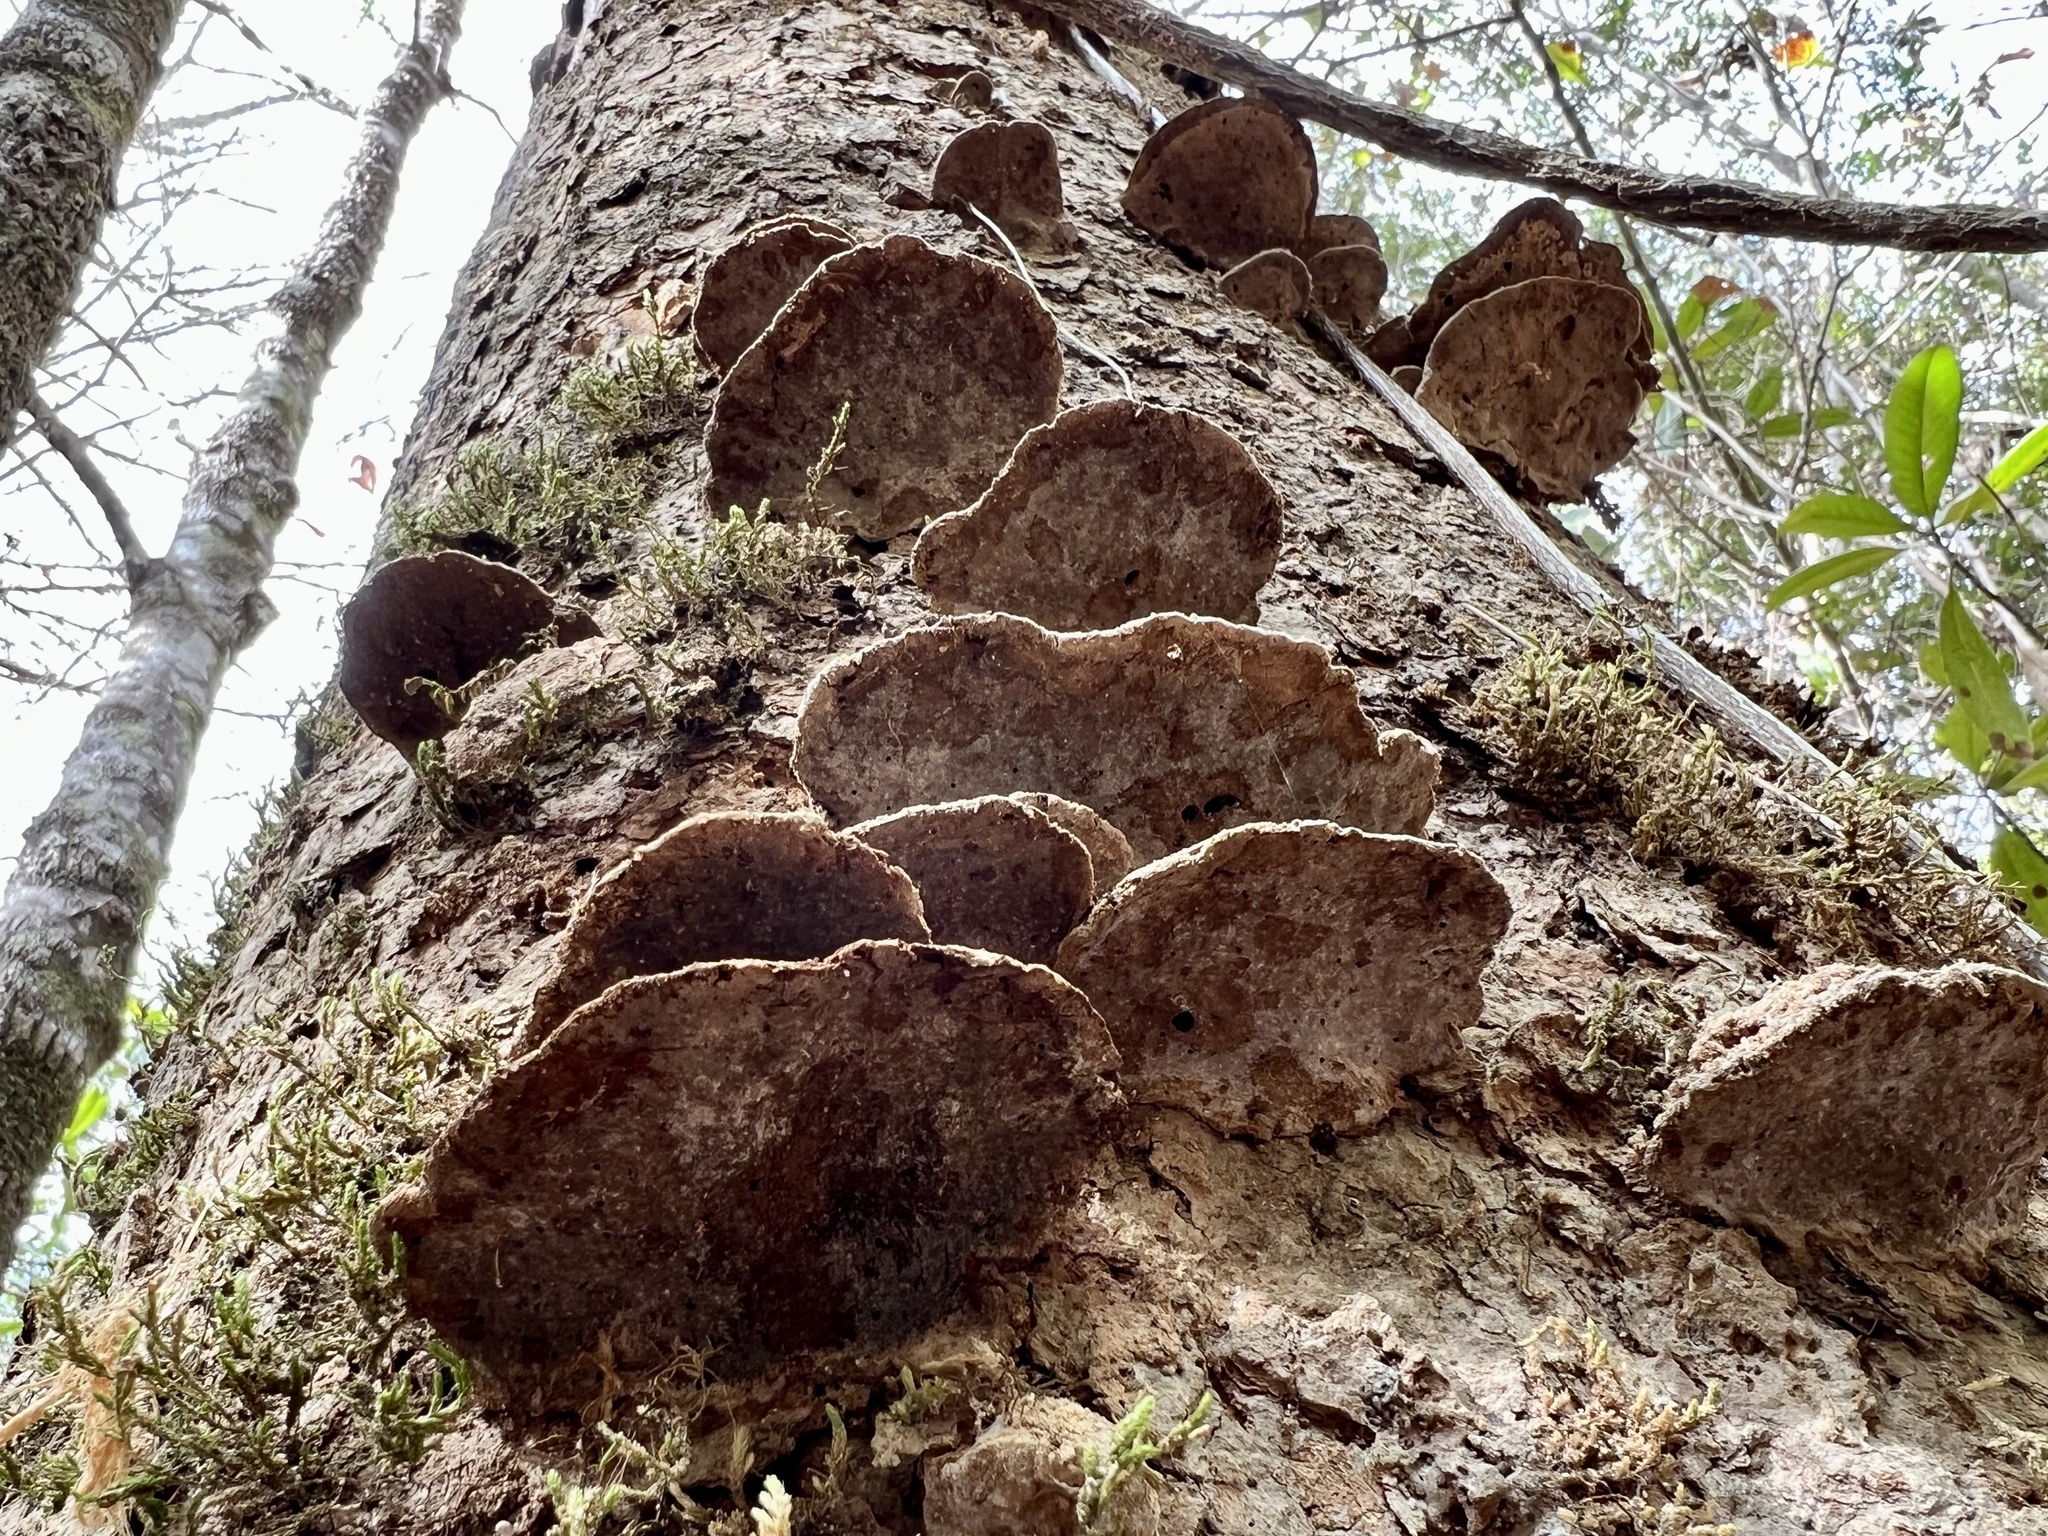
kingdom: Fungi
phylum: Basidiomycota
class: Agaricomycetes
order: Polyporales
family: Polyporaceae
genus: Fomes
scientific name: Fomes fasciatus
